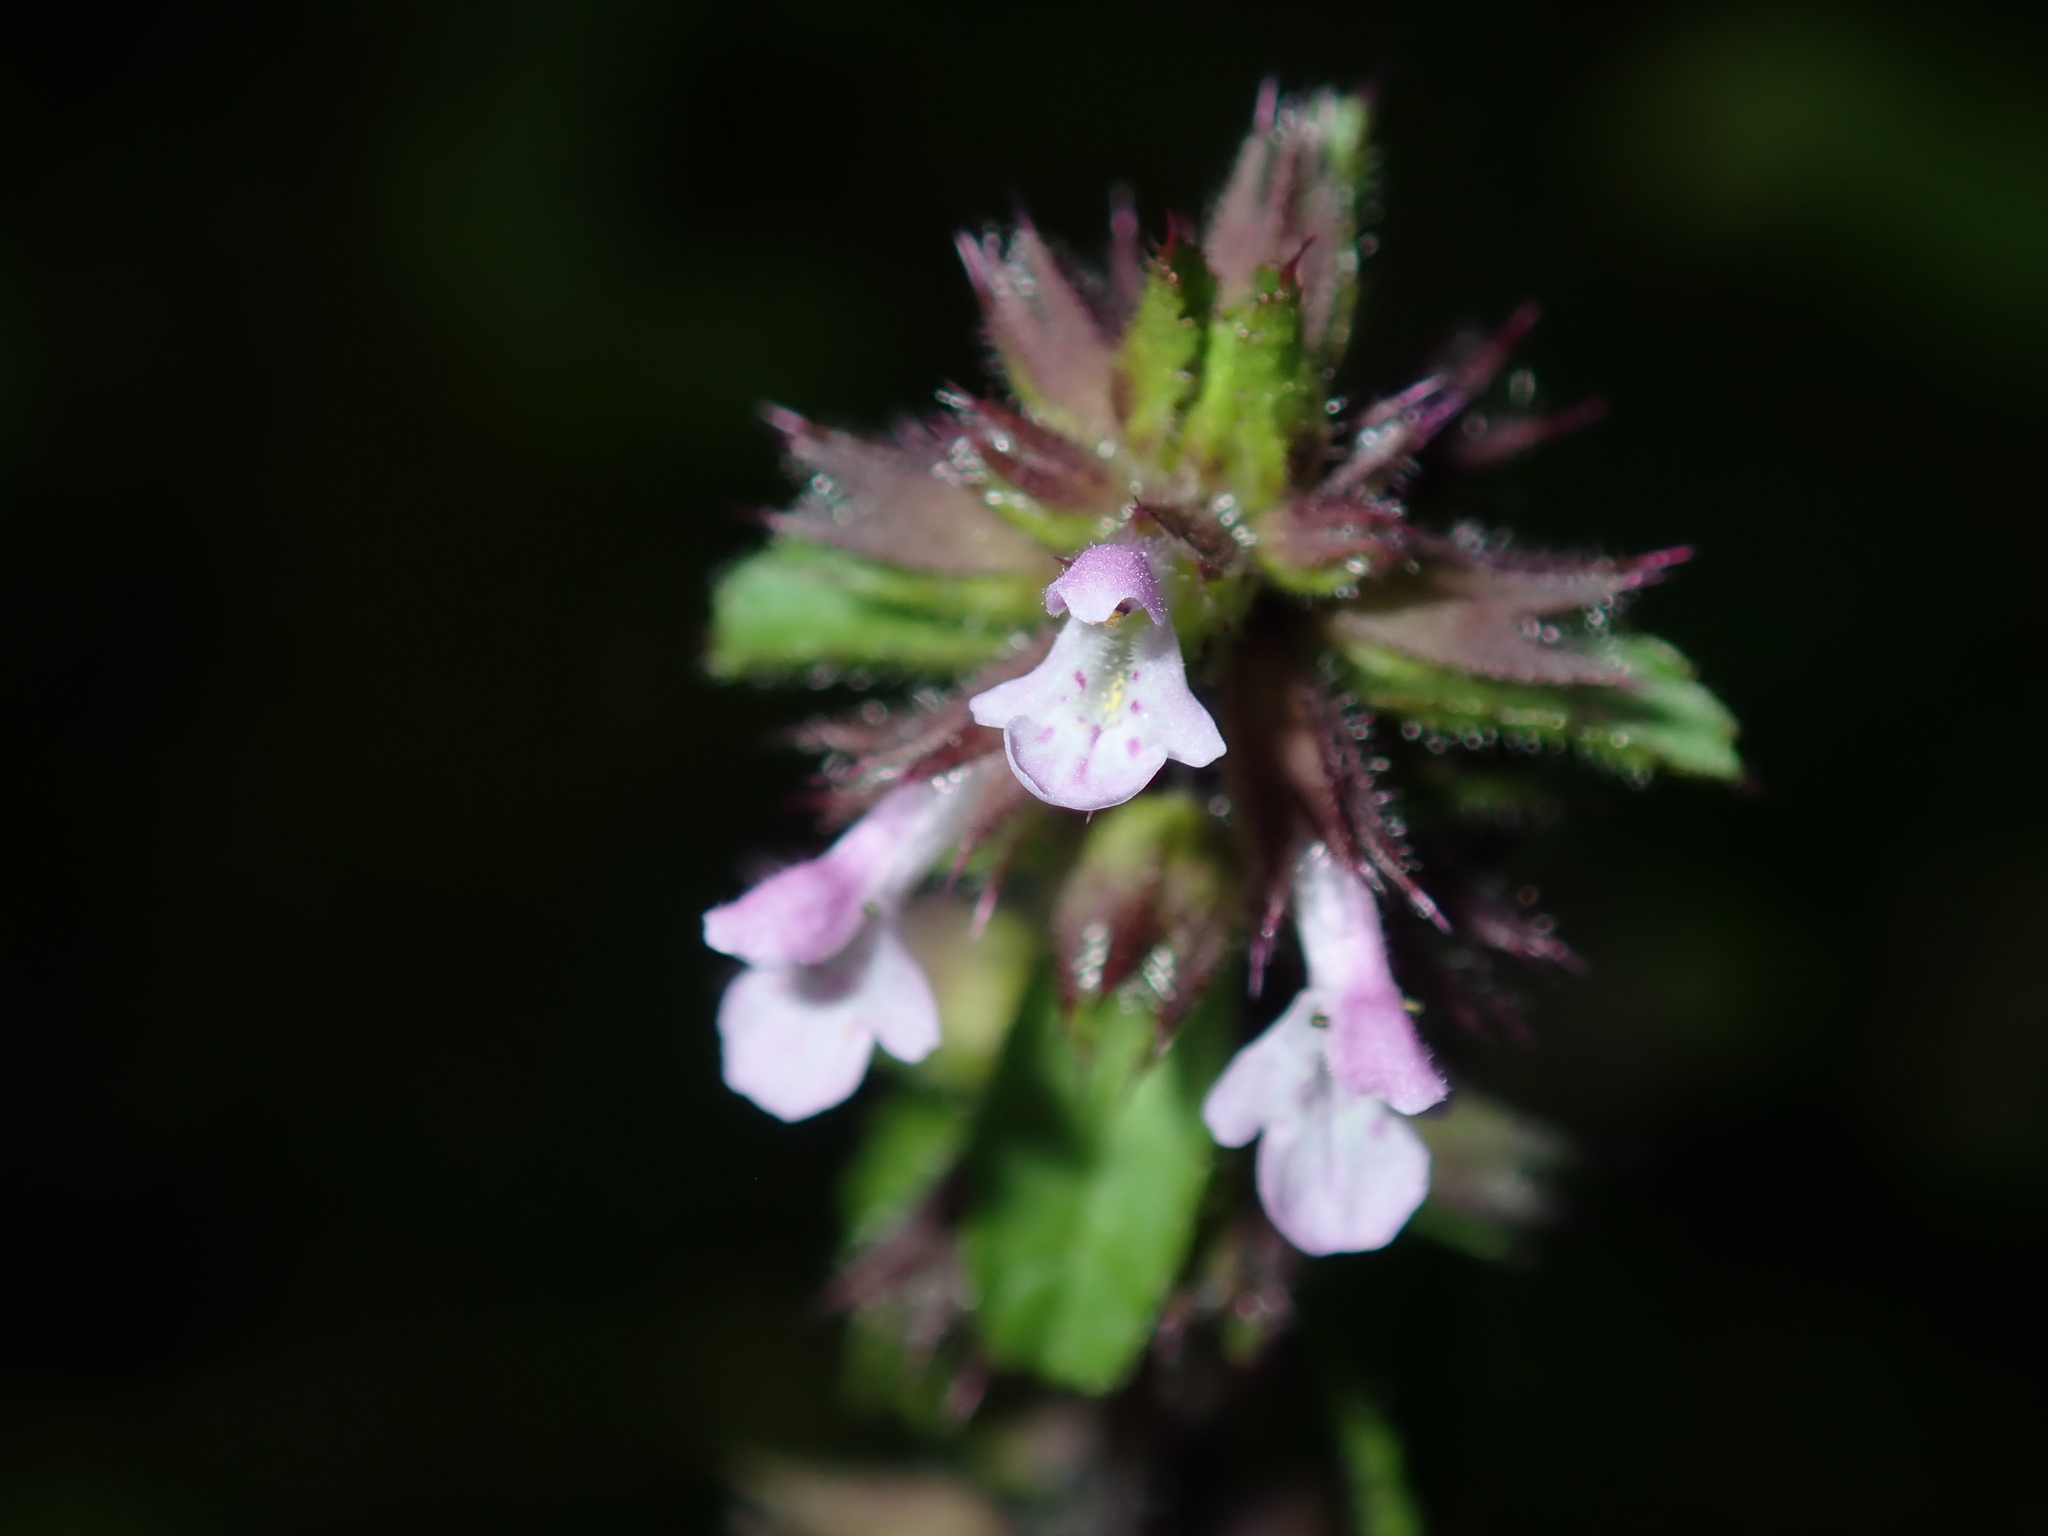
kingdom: Plantae
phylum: Tracheophyta
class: Magnoliopsida
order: Lamiales
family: Lamiaceae
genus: Stachys
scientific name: Stachys arvensis
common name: Field woundwort
